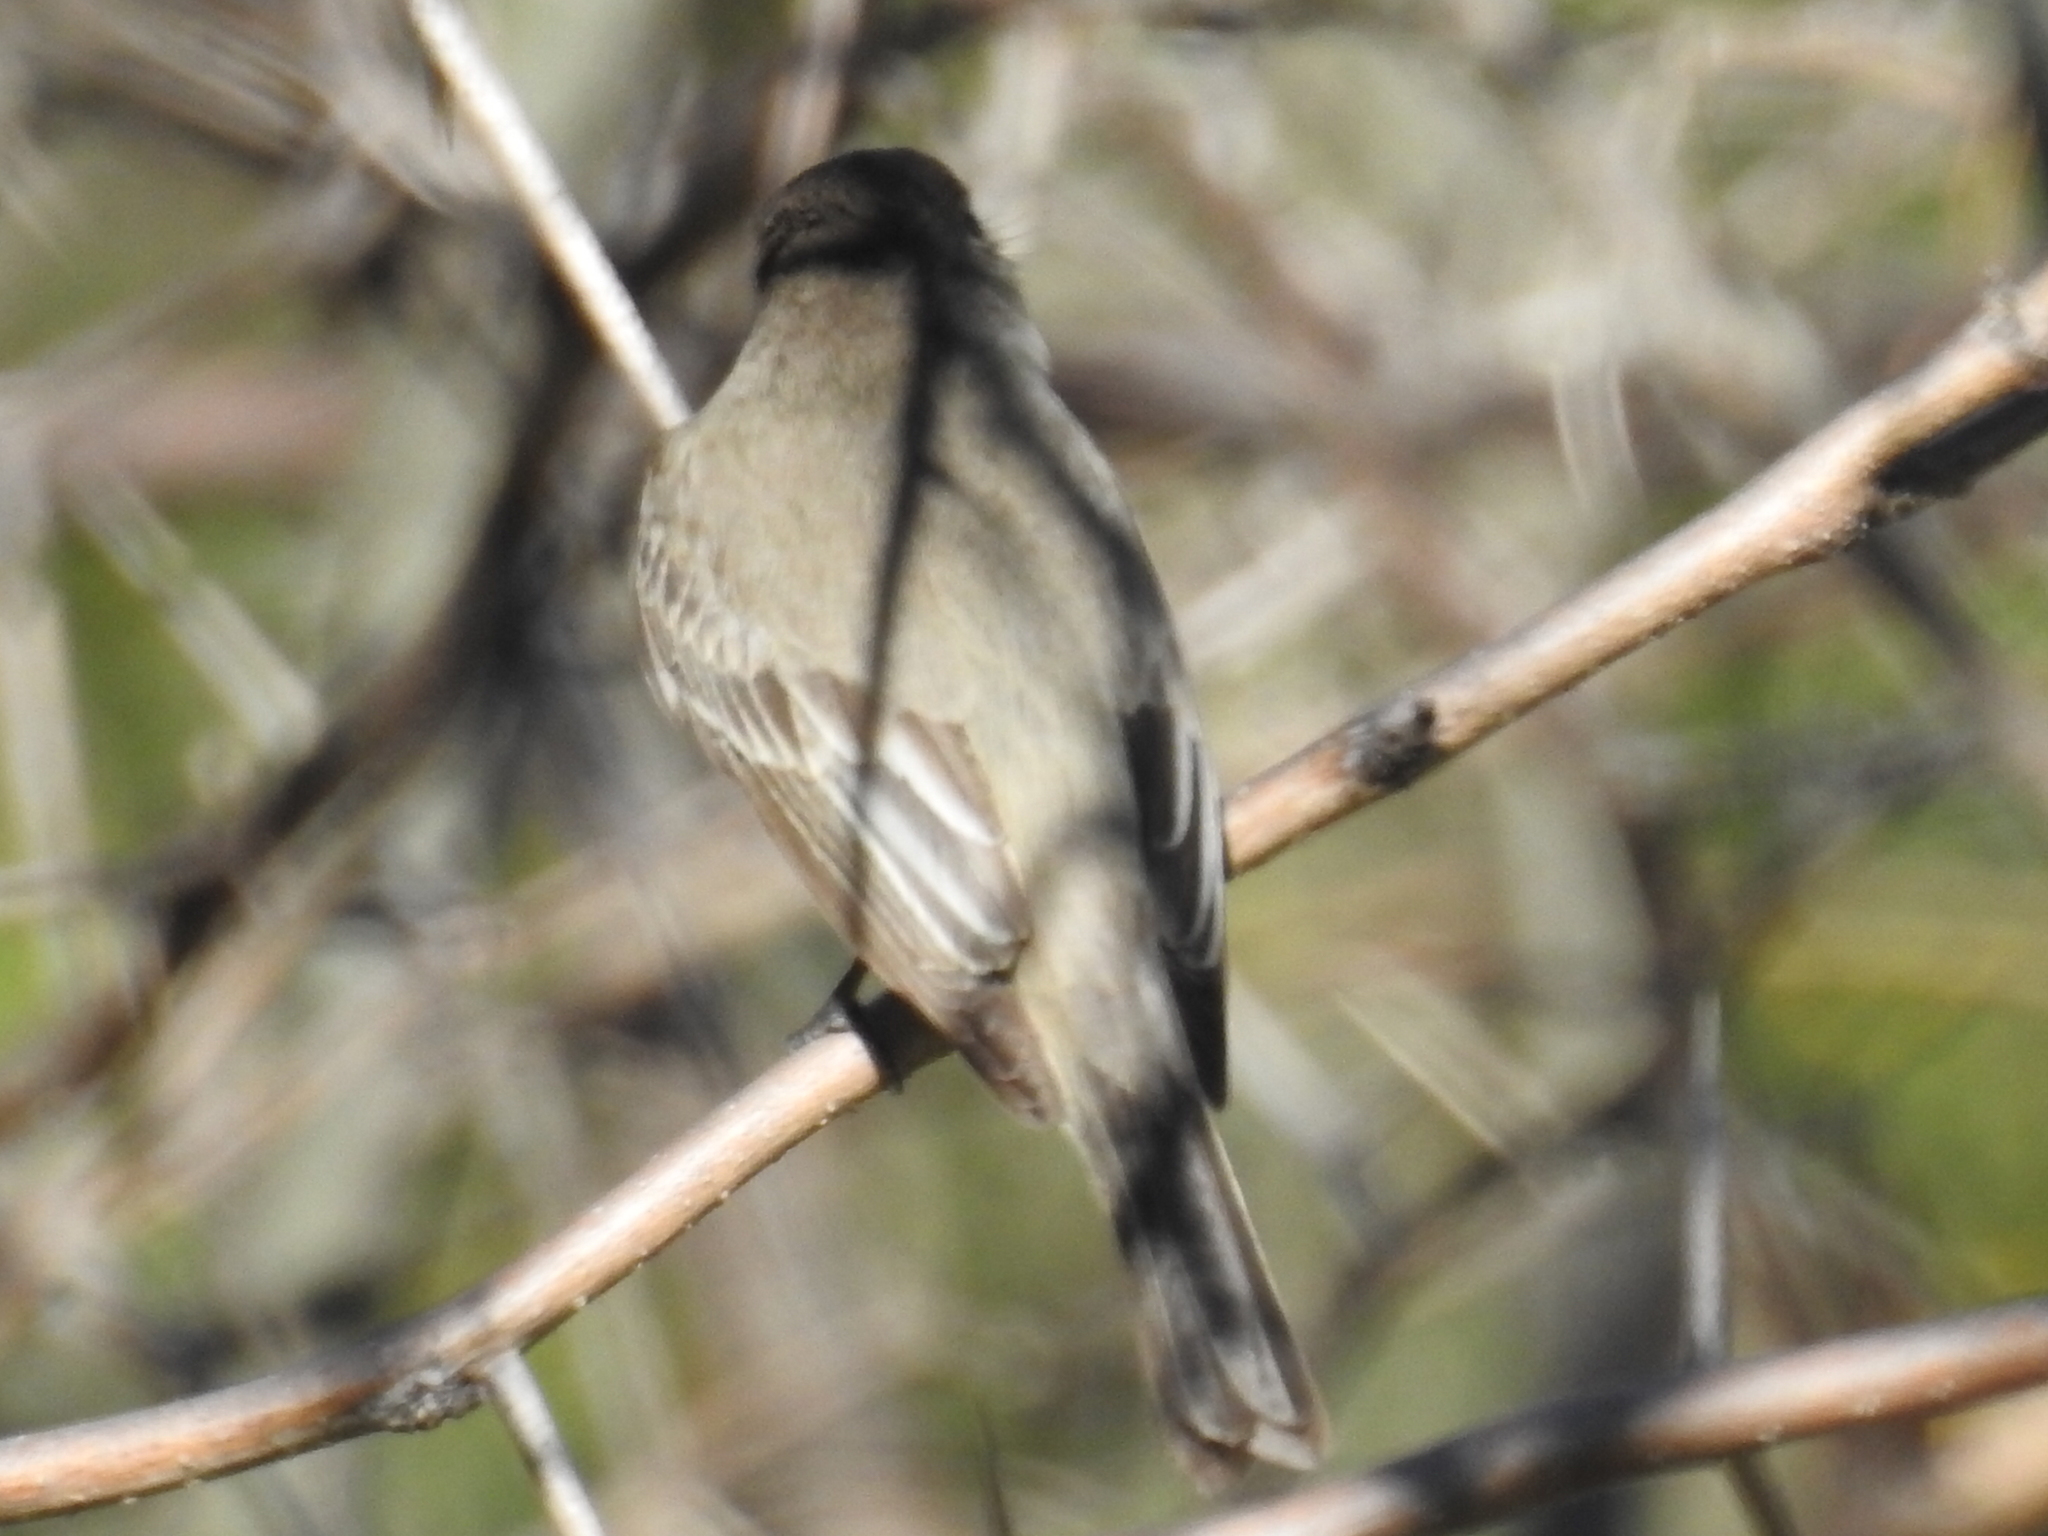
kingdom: Animalia
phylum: Chordata
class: Aves
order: Passeriformes
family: Tyrannidae
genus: Sayornis
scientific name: Sayornis phoebe
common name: Eastern phoebe
